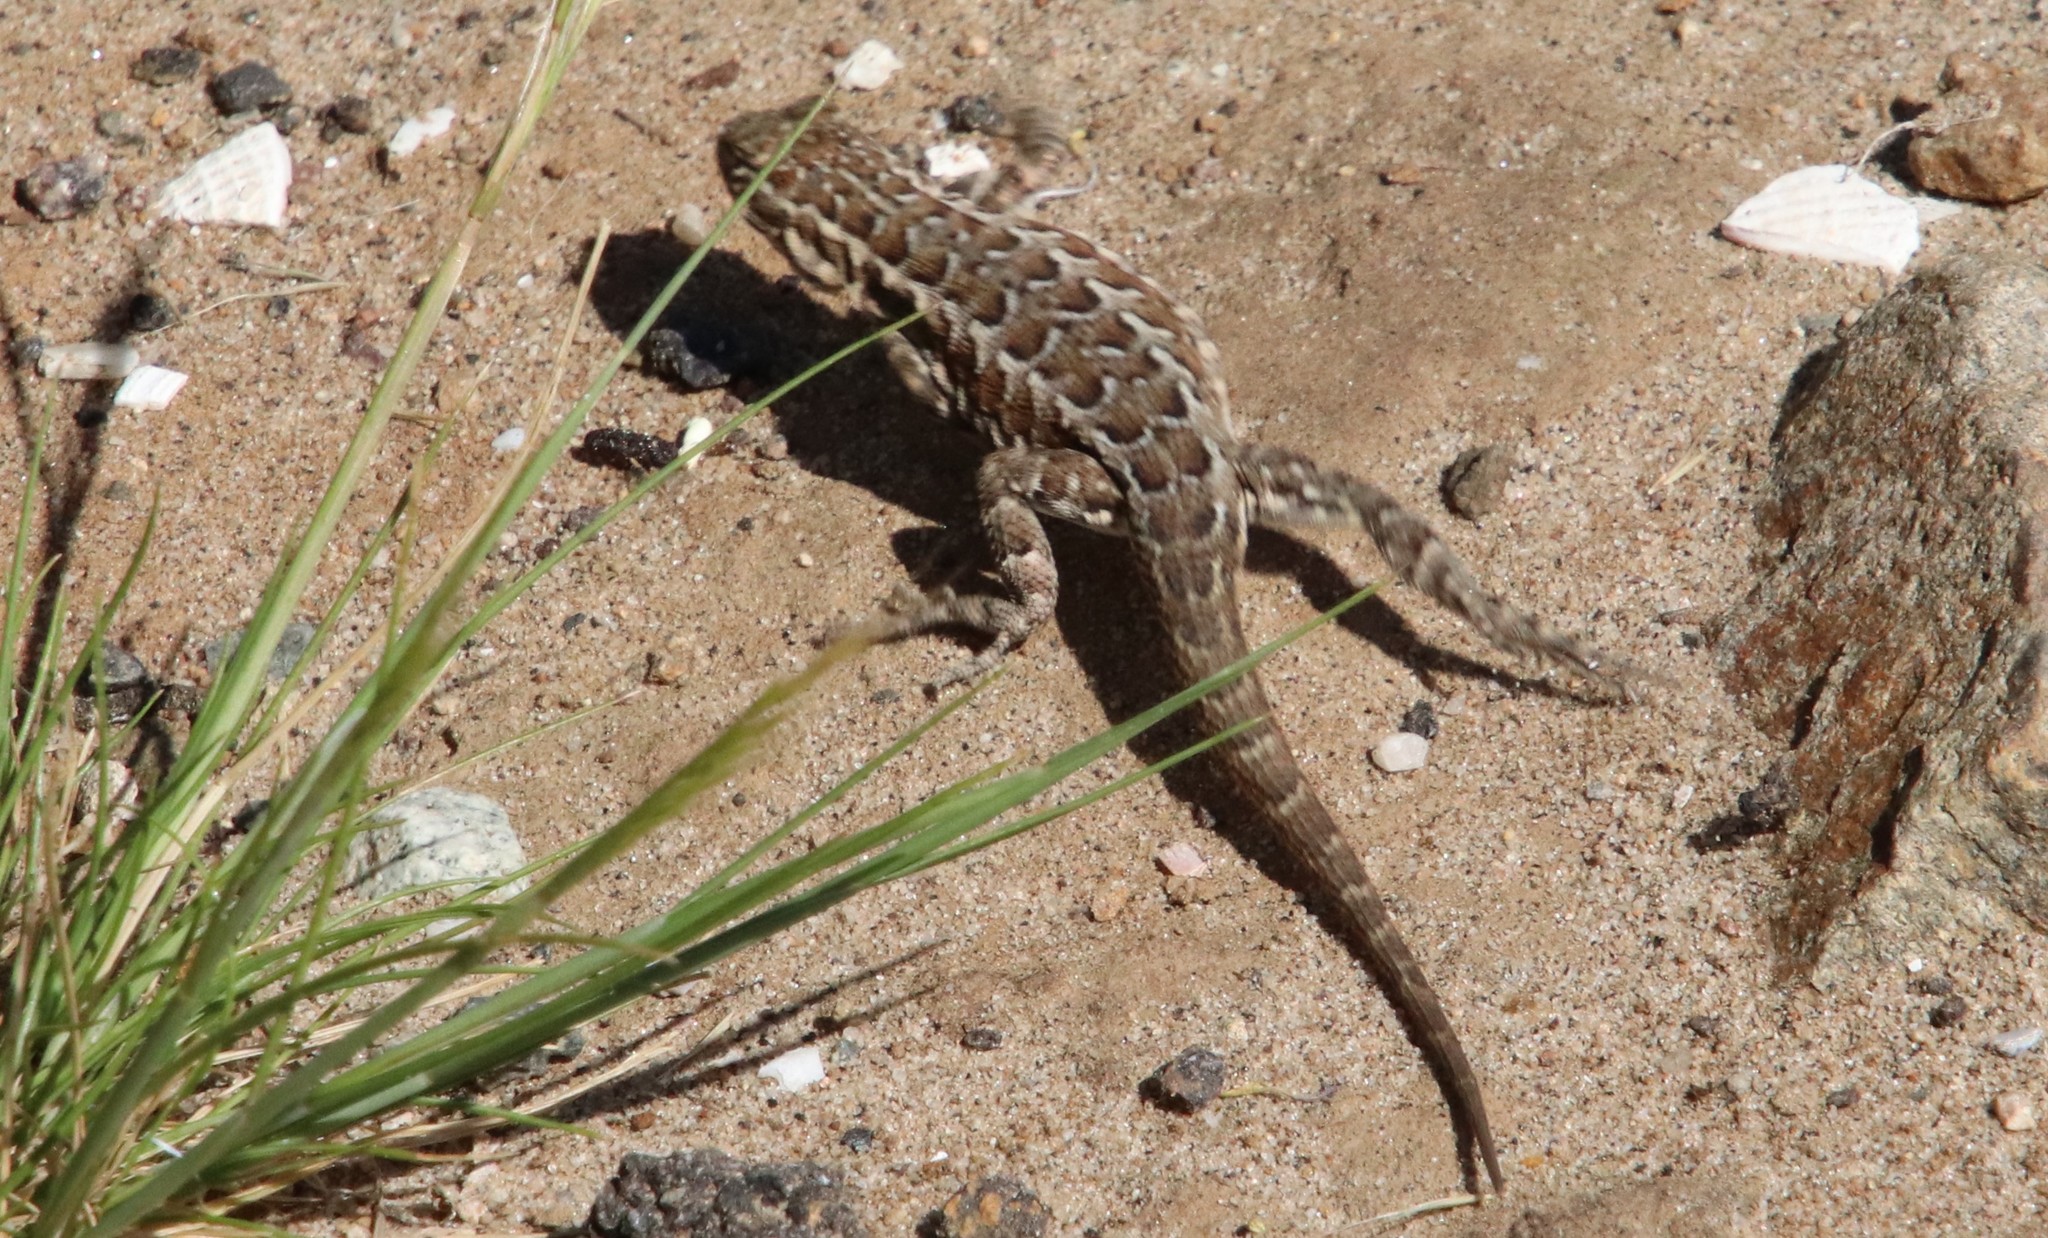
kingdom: Animalia
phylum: Chordata
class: Squamata
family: Phrynosomatidae
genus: Uta
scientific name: Uta stansburiana
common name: Side-blotched lizard
